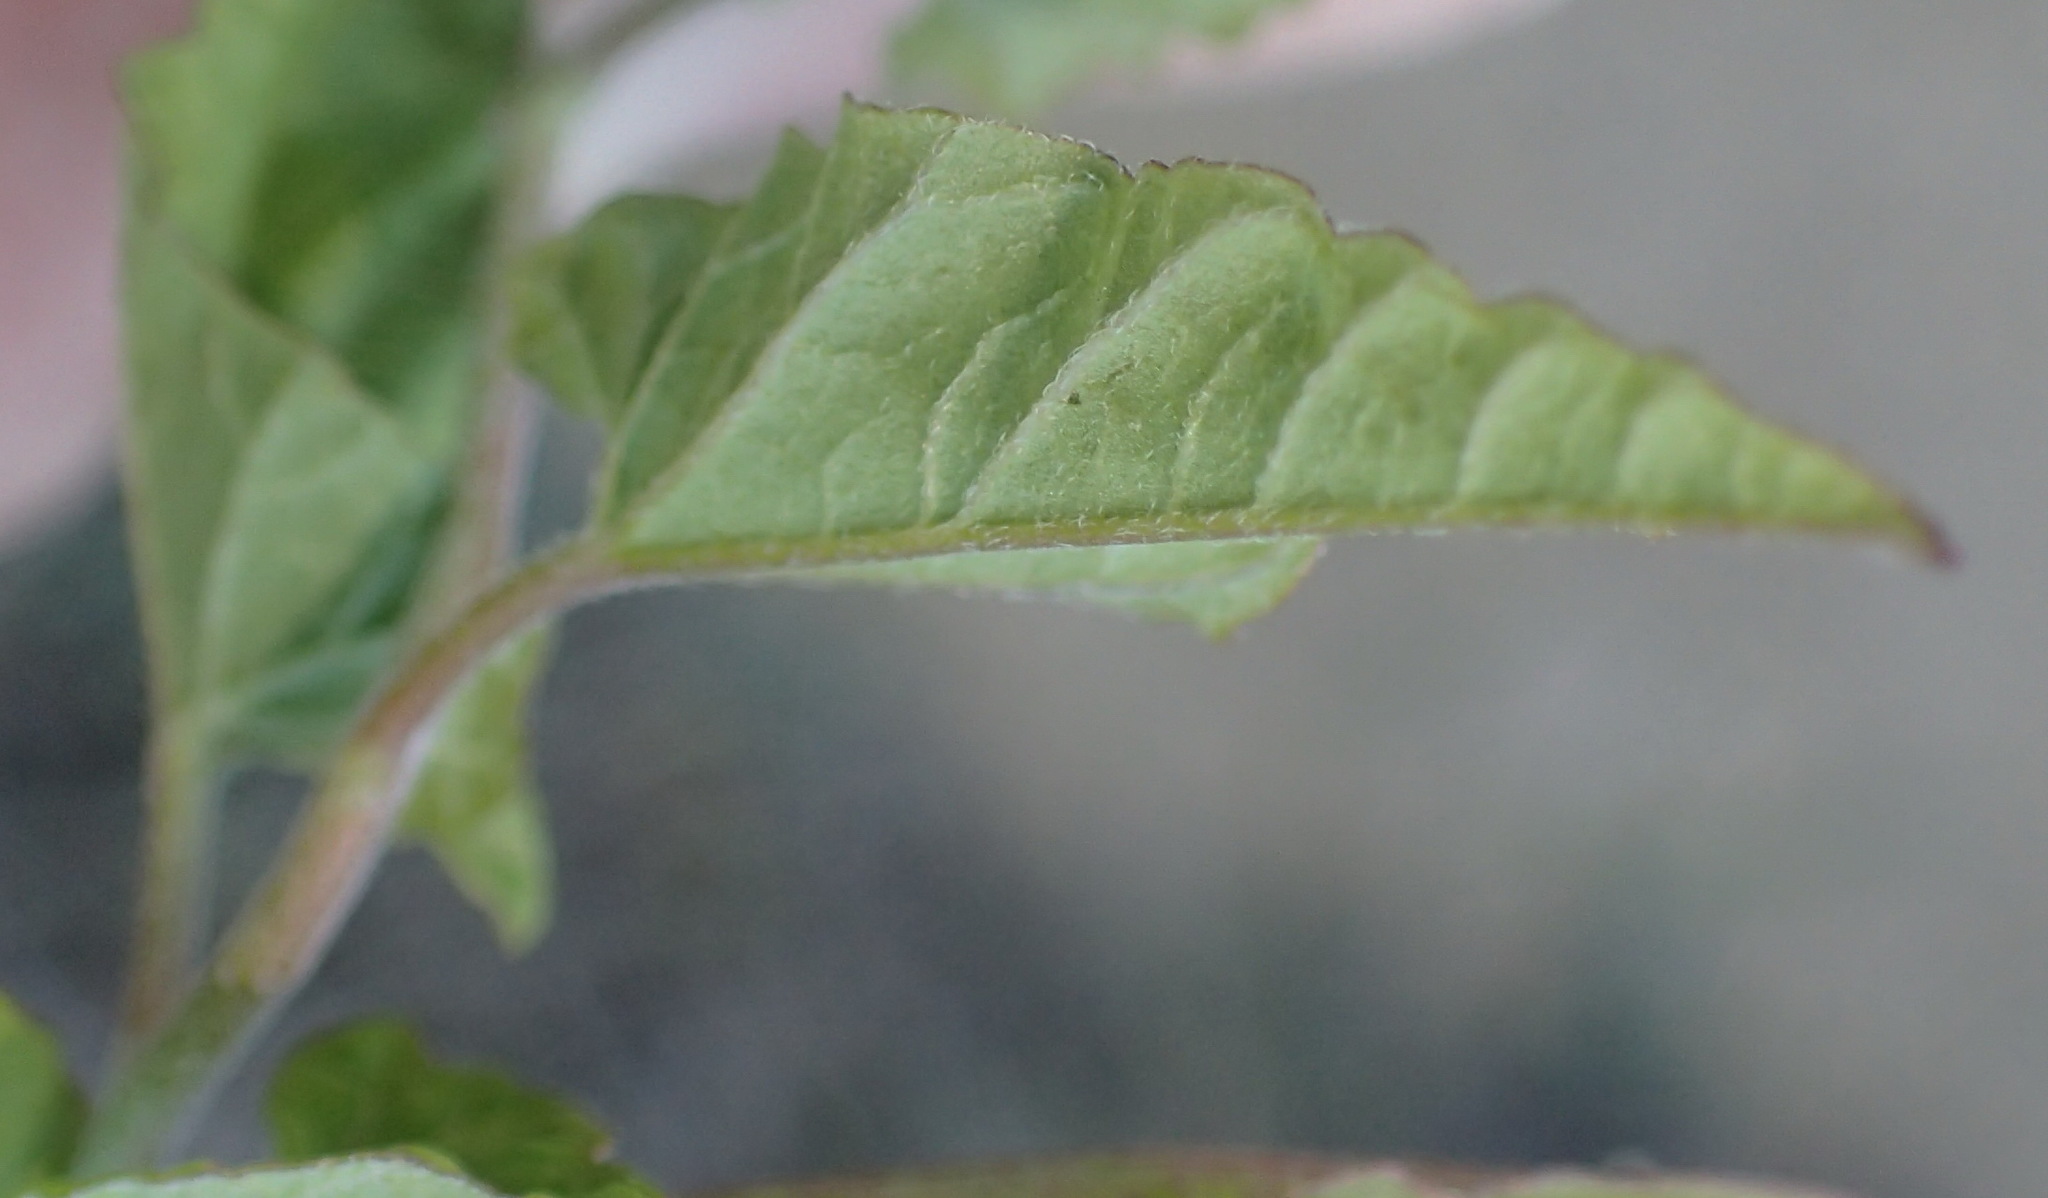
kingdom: Plantae
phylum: Tracheophyta
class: Magnoliopsida
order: Solanales
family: Convolvulaceae
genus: Convolvulus
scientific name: Convolvulus farinosus
